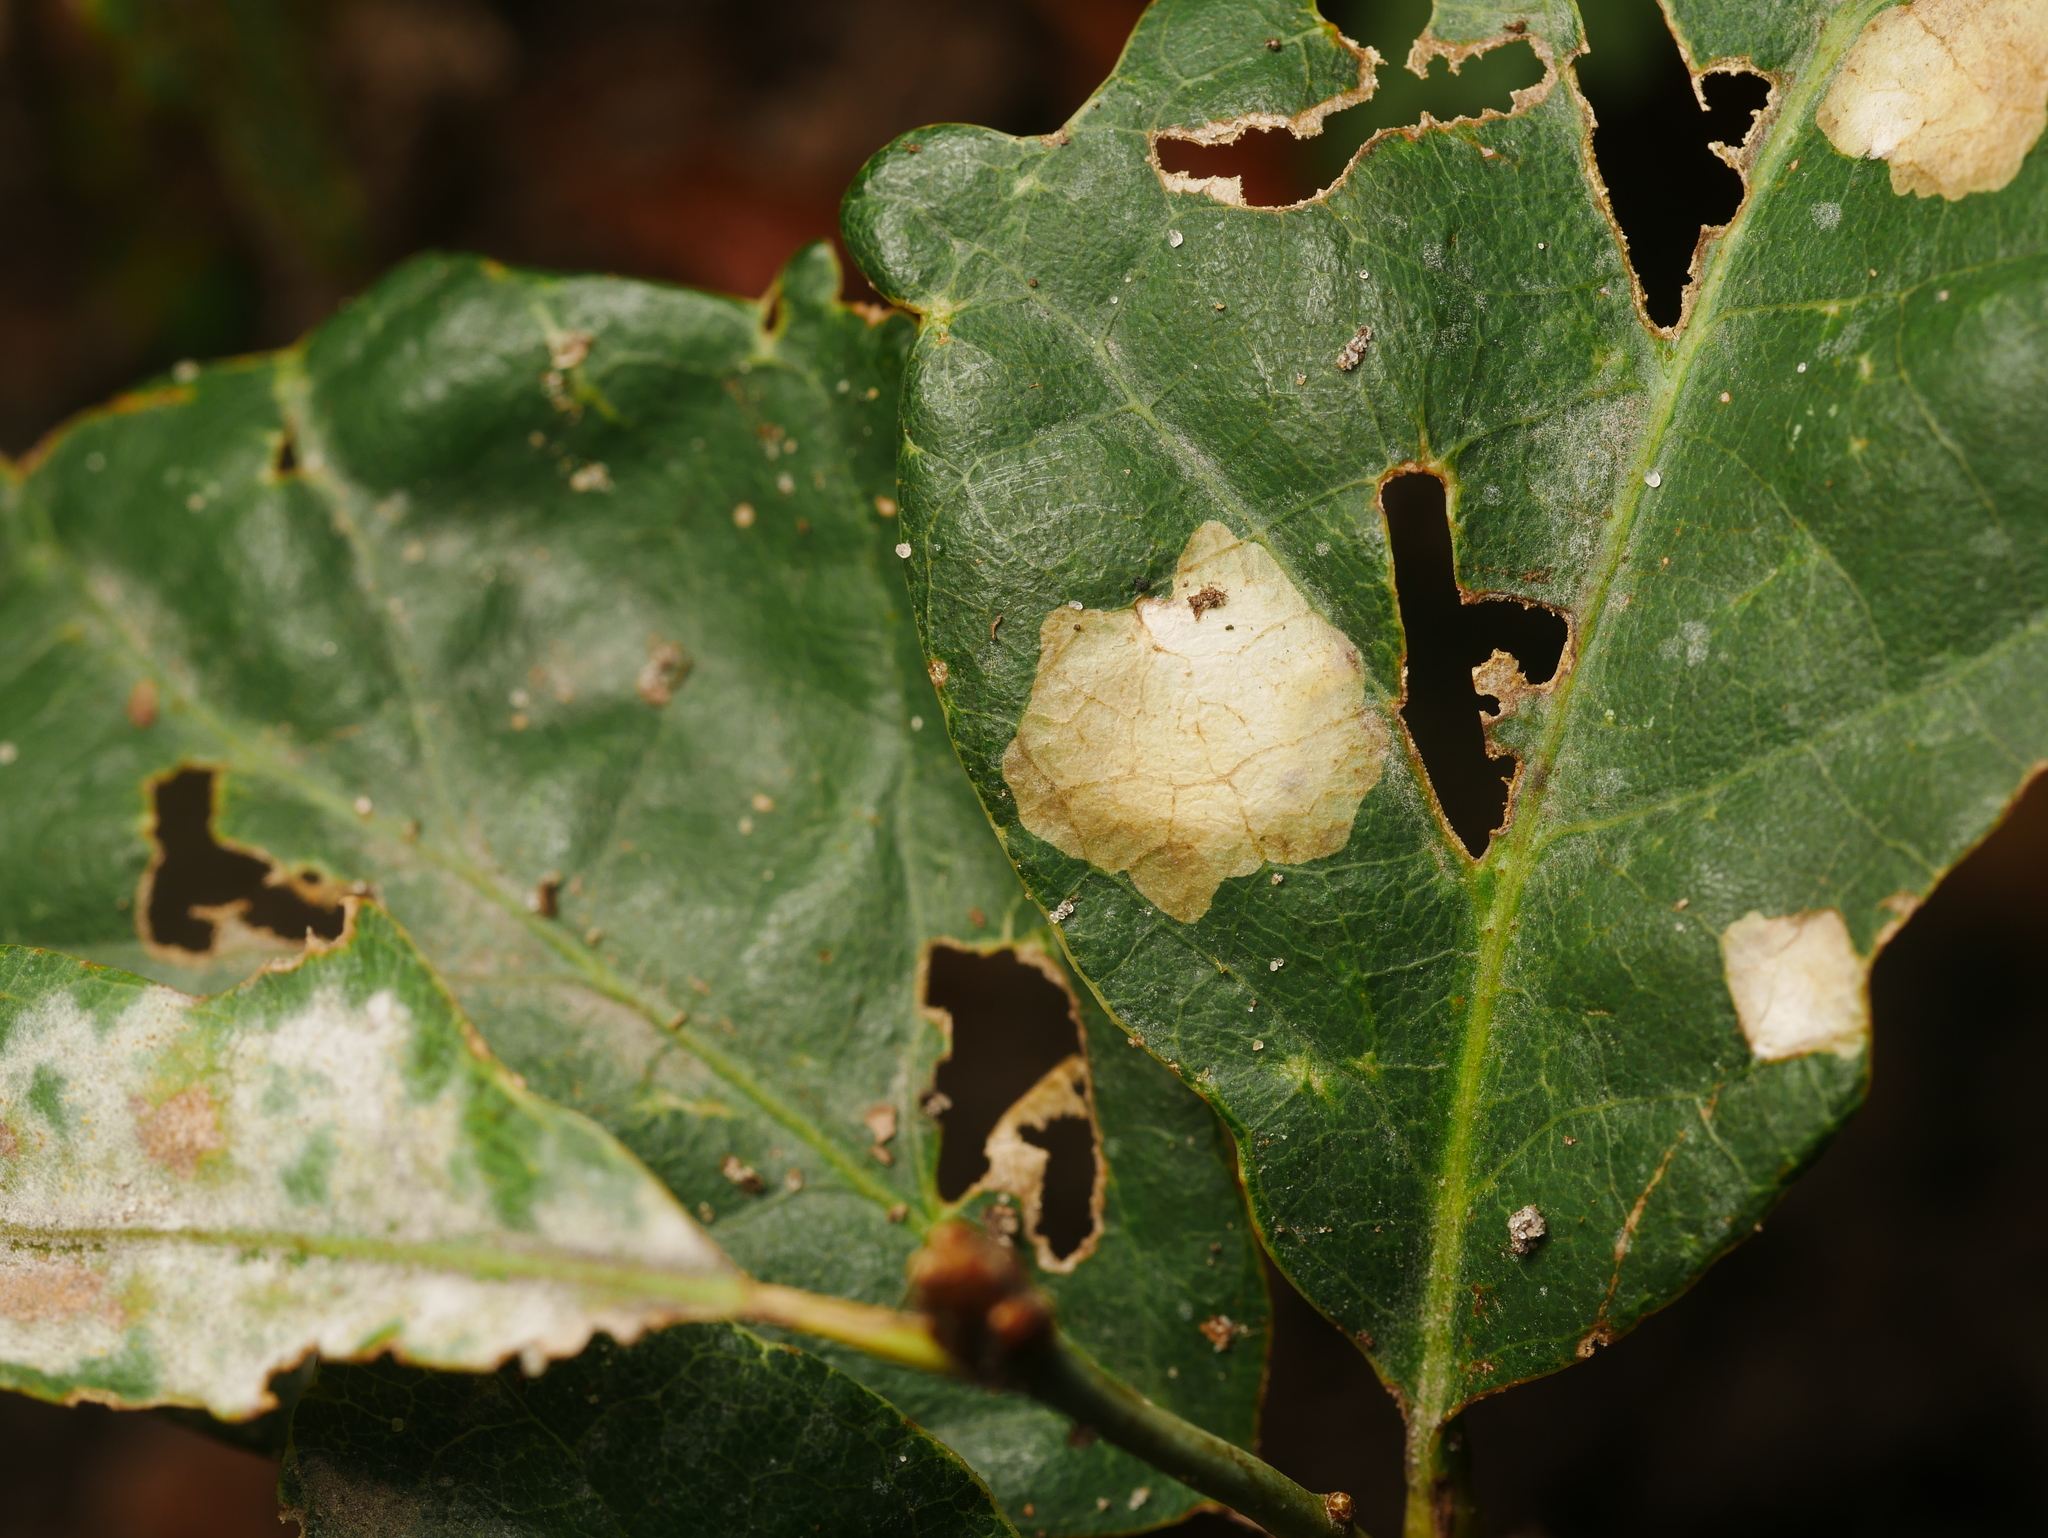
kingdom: Animalia
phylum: Arthropoda
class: Insecta
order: Lepidoptera
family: Tischeriidae
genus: Tischeria
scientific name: Tischeria ekebladella
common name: Oak carl
